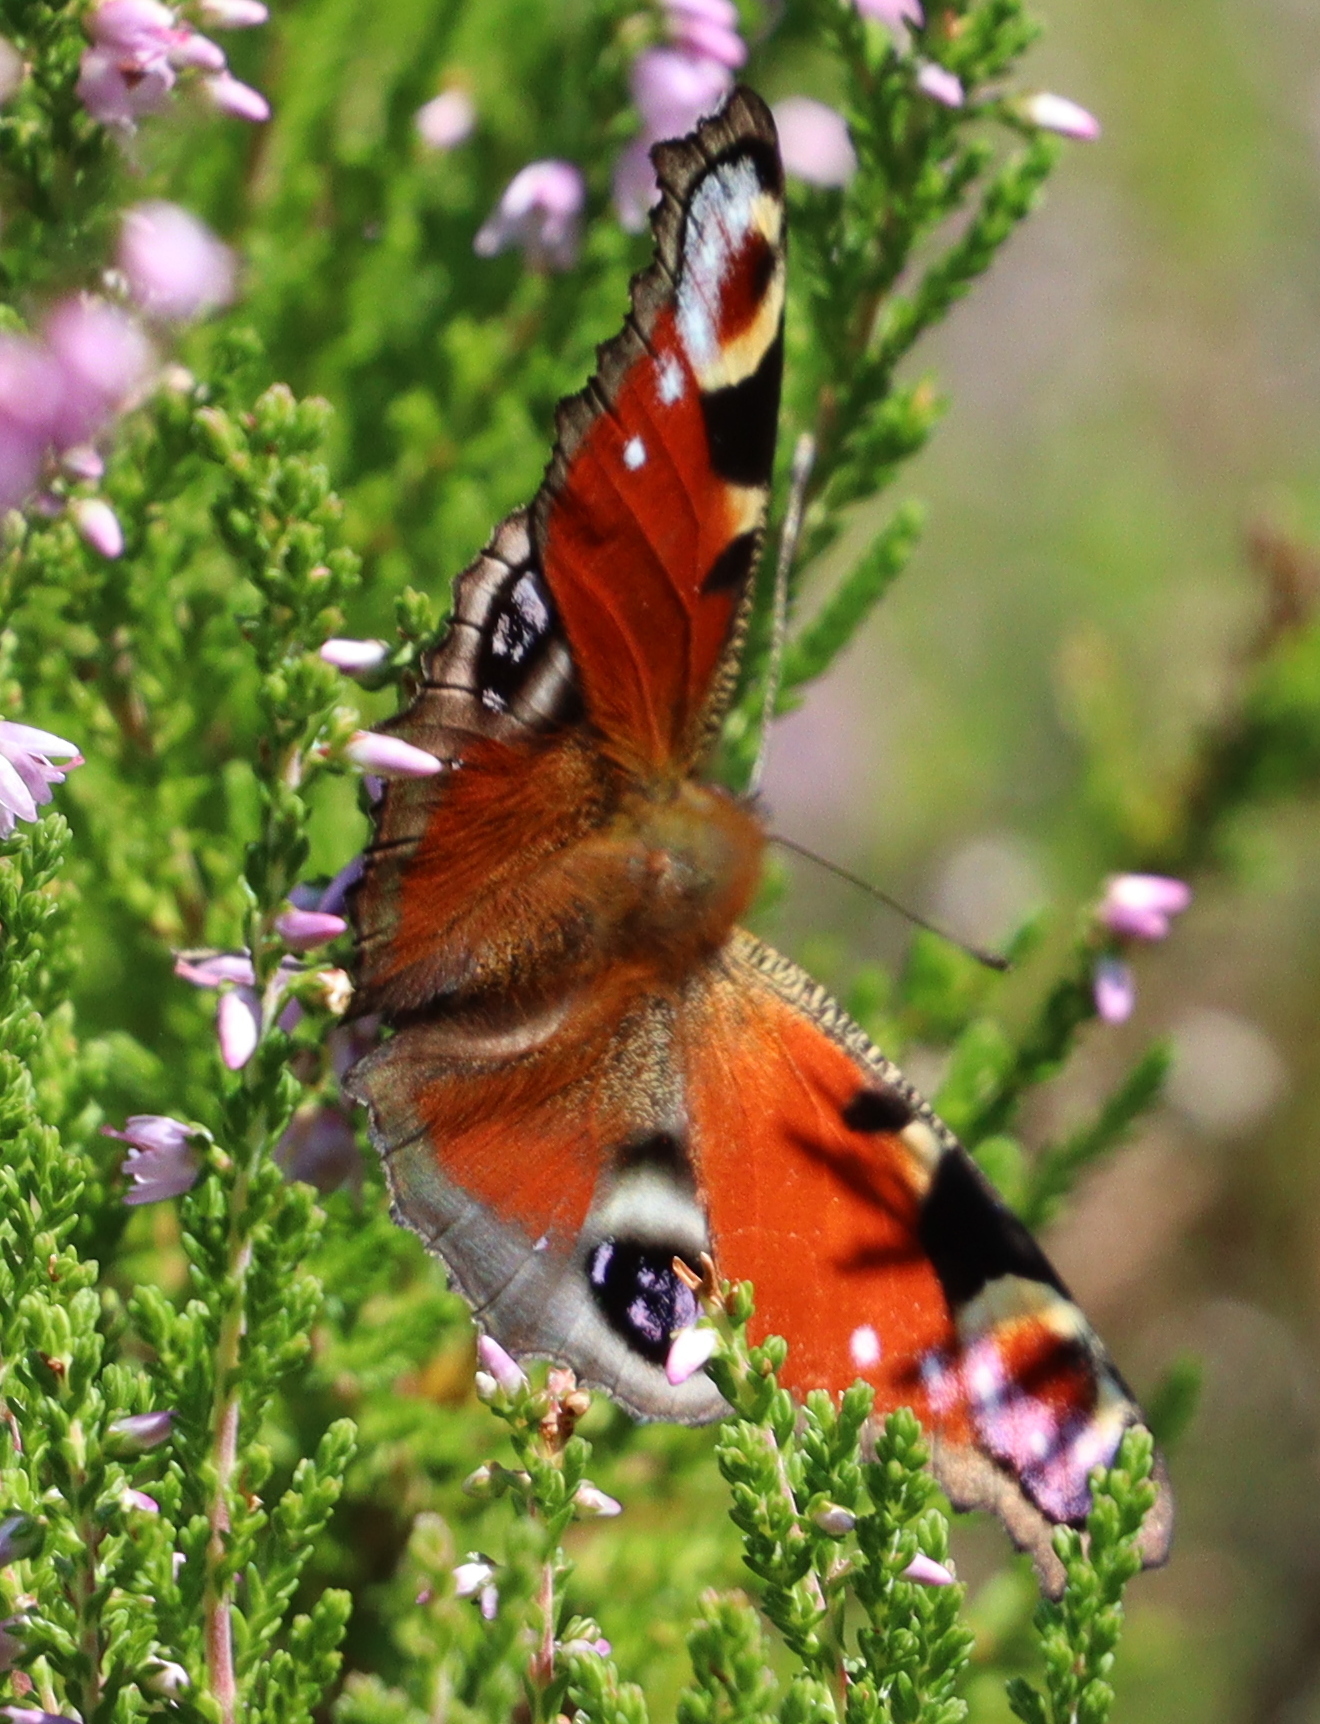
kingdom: Animalia
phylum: Arthropoda
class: Insecta
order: Lepidoptera
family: Nymphalidae
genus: Aglais
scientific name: Aglais io
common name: Peacock
